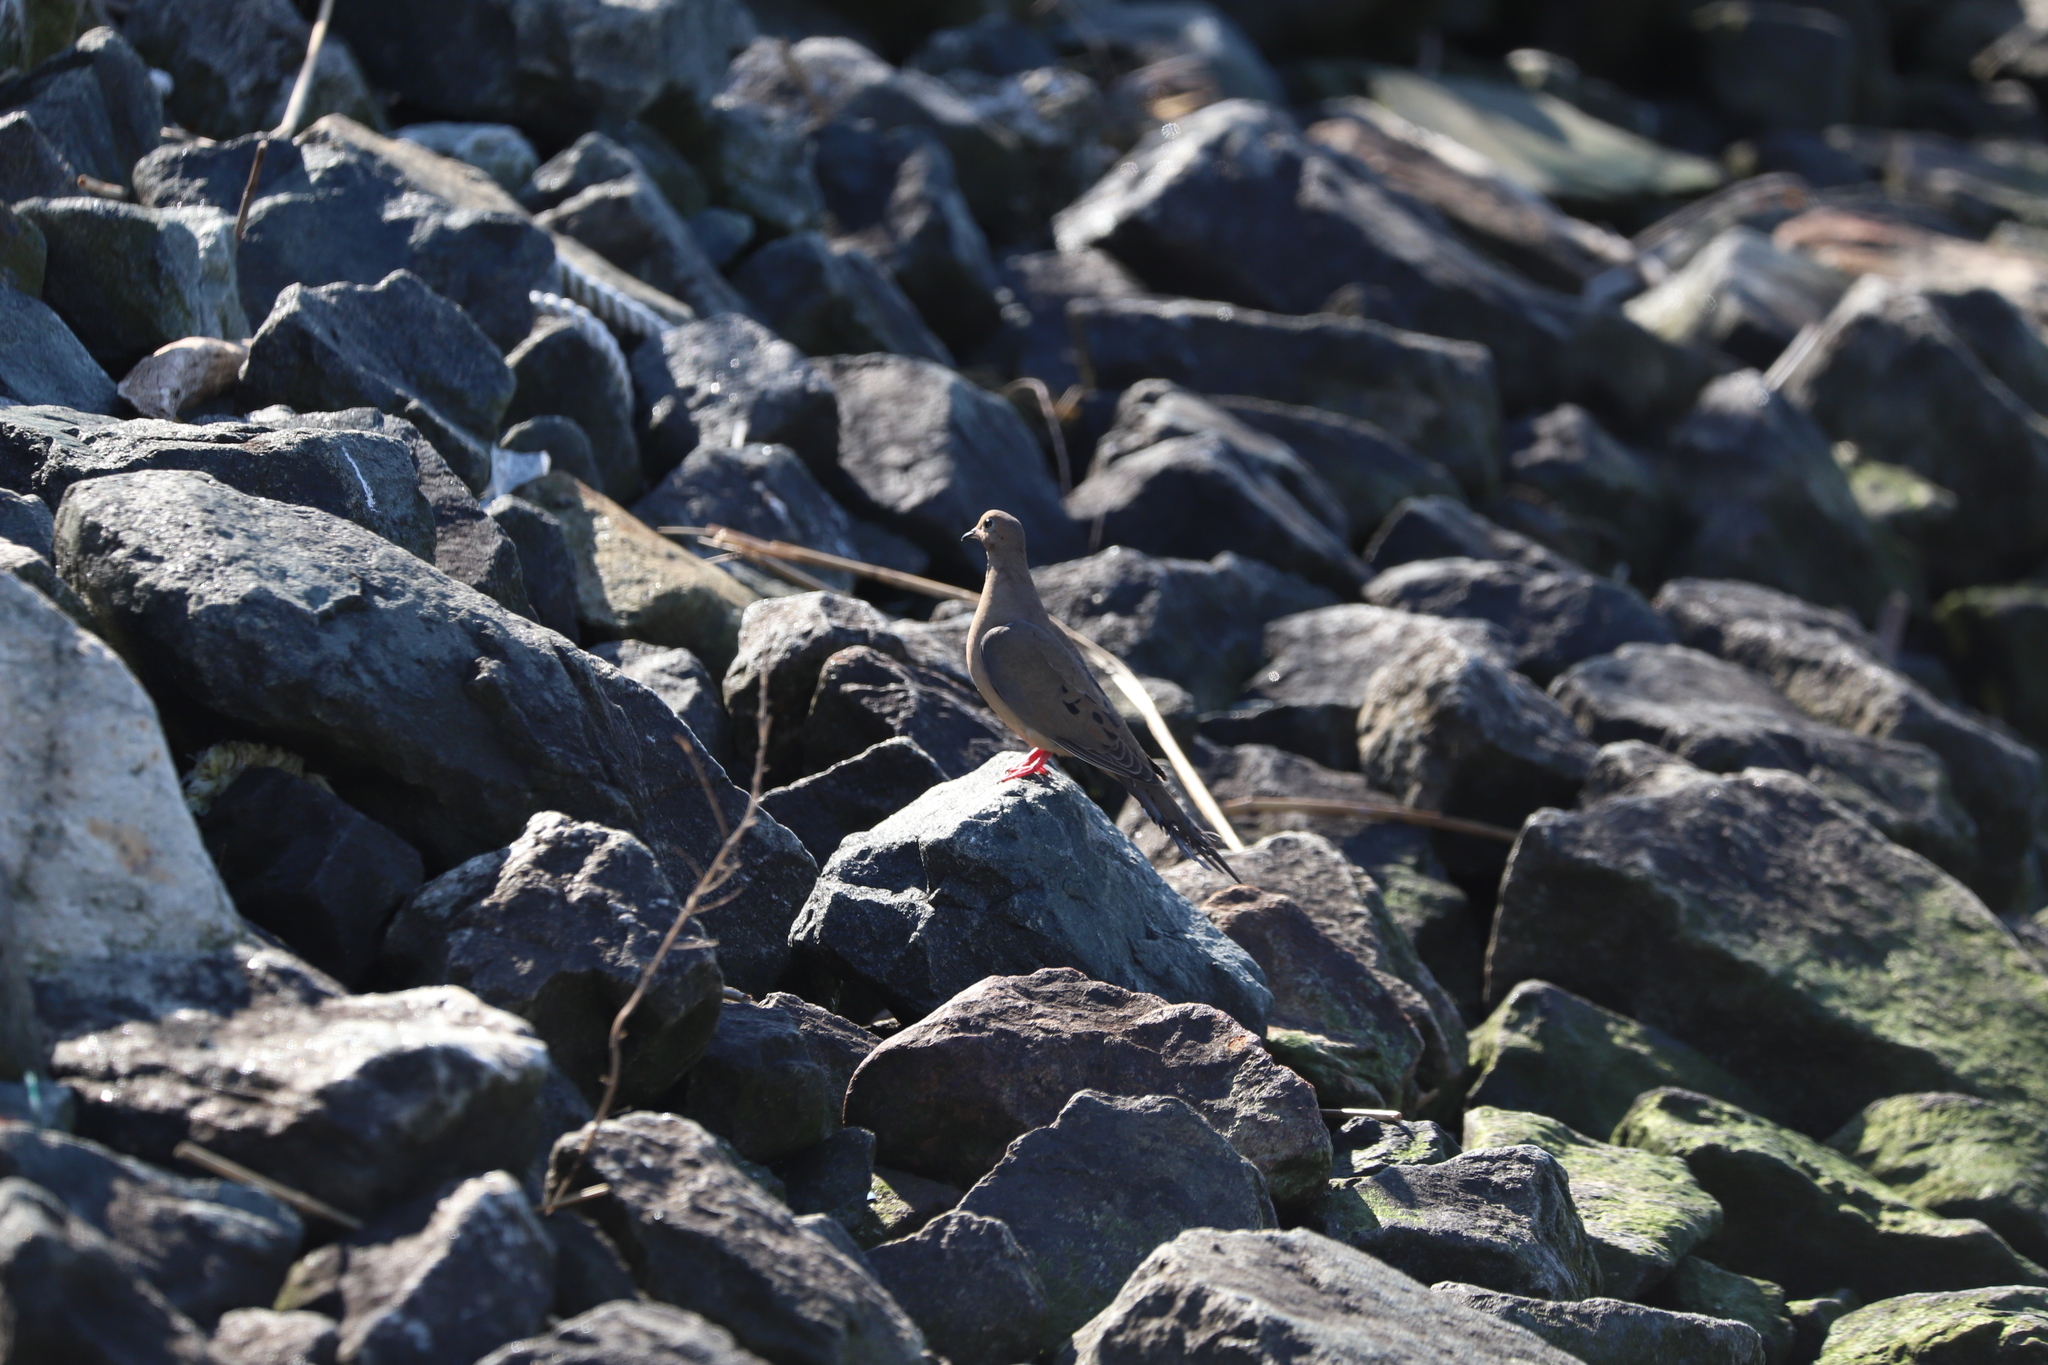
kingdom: Animalia
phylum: Chordata
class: Aves
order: Columbiformes
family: Columbidae
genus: Zenaida
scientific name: Zenaida macroura
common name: Mourning dove
